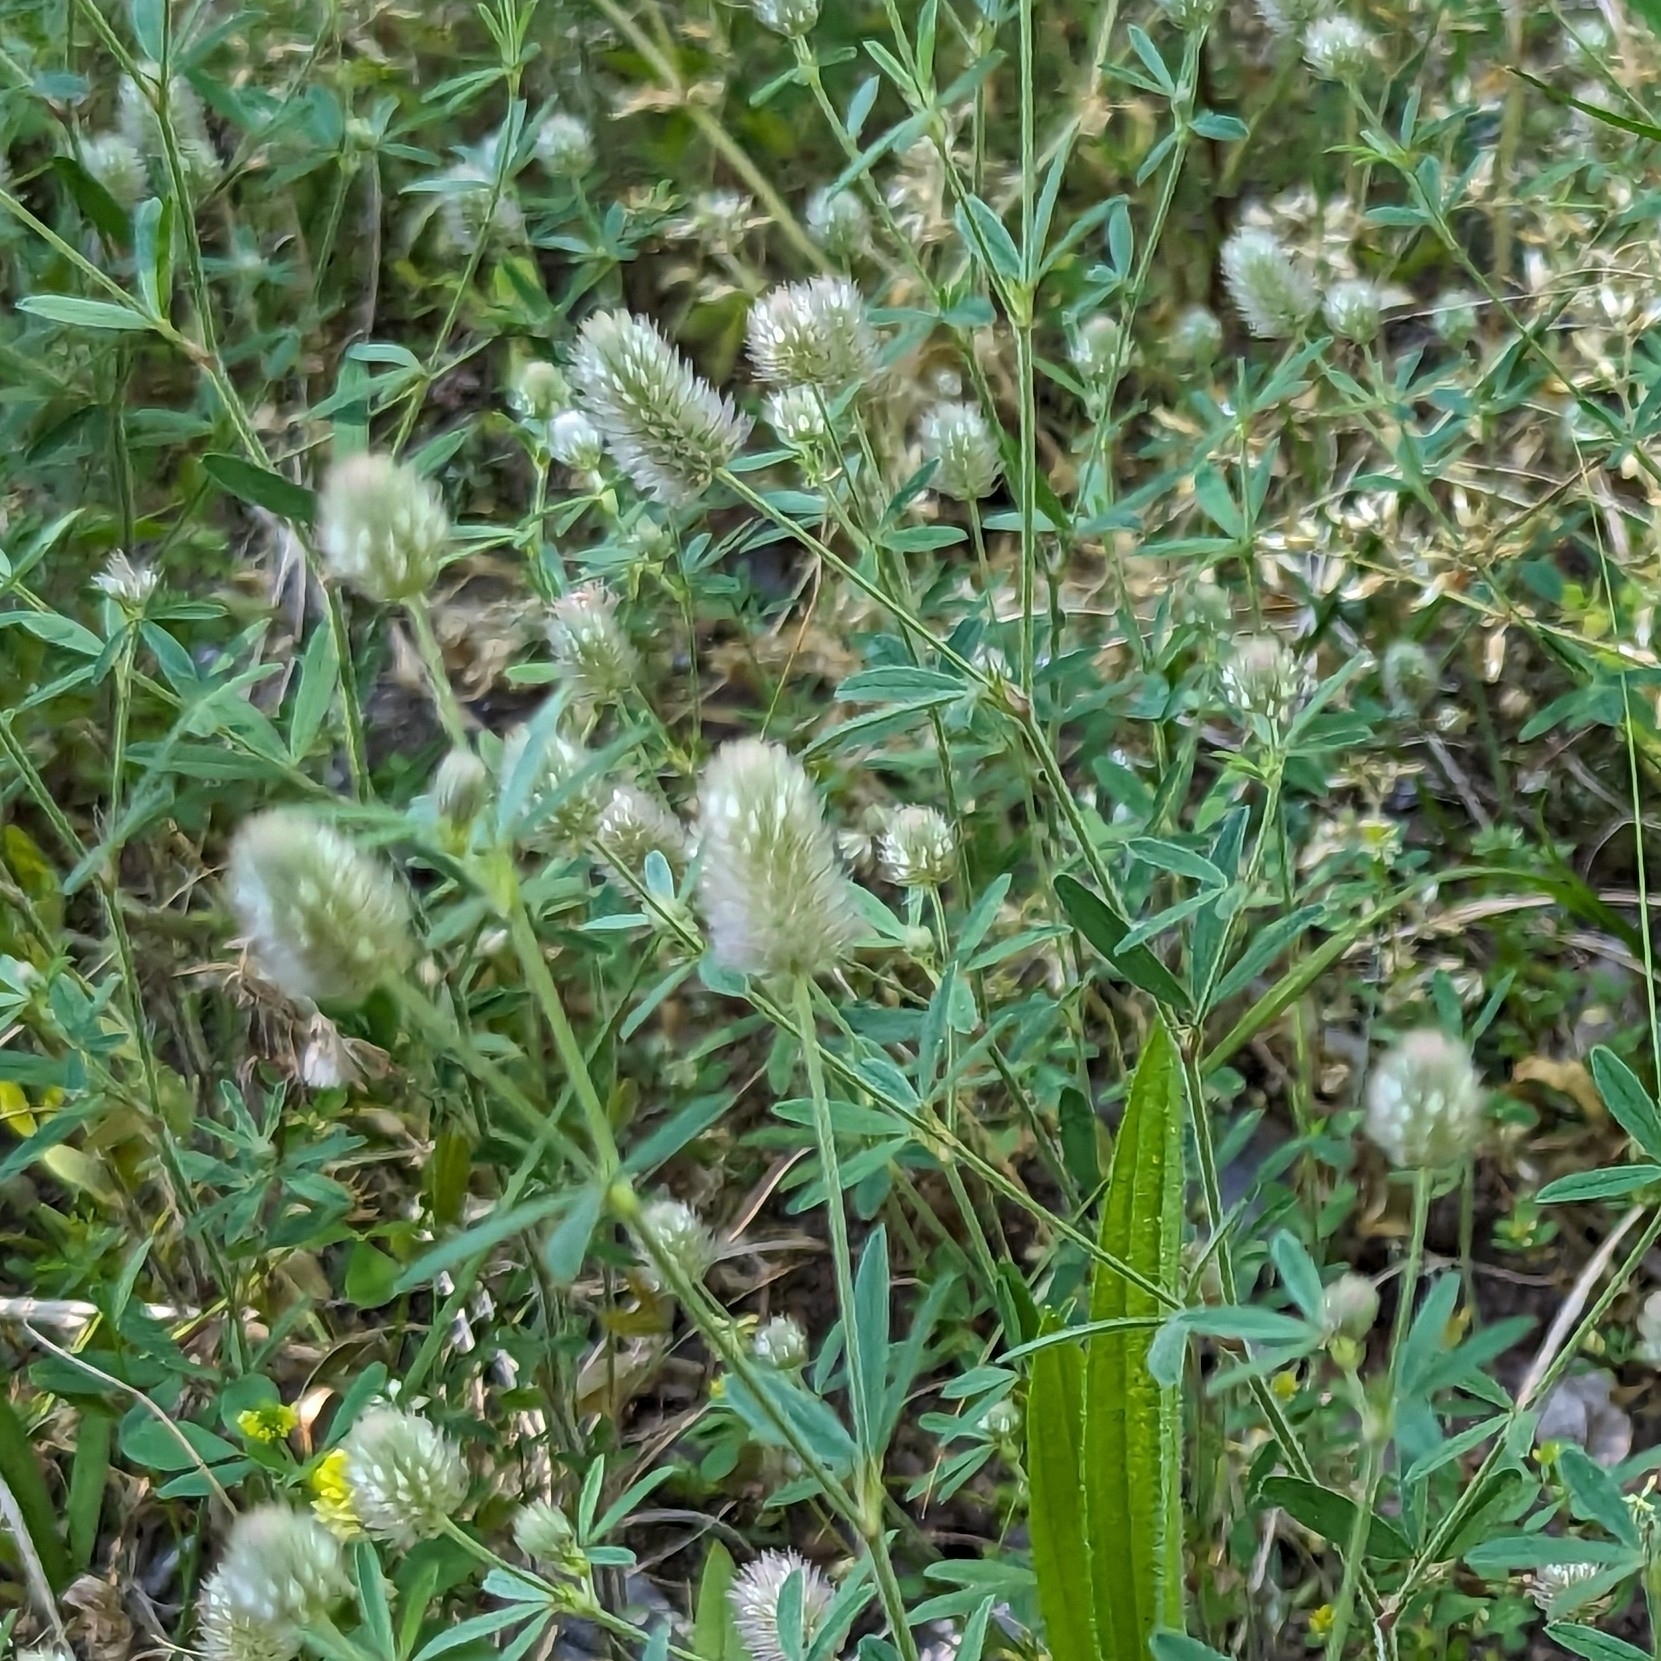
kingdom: Plantae
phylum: Tracheophyta
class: Magnoliopsida
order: Fabales
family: Fabaceae
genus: Trifolium
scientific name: Trifolium arvense
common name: Hare's-foot clover
